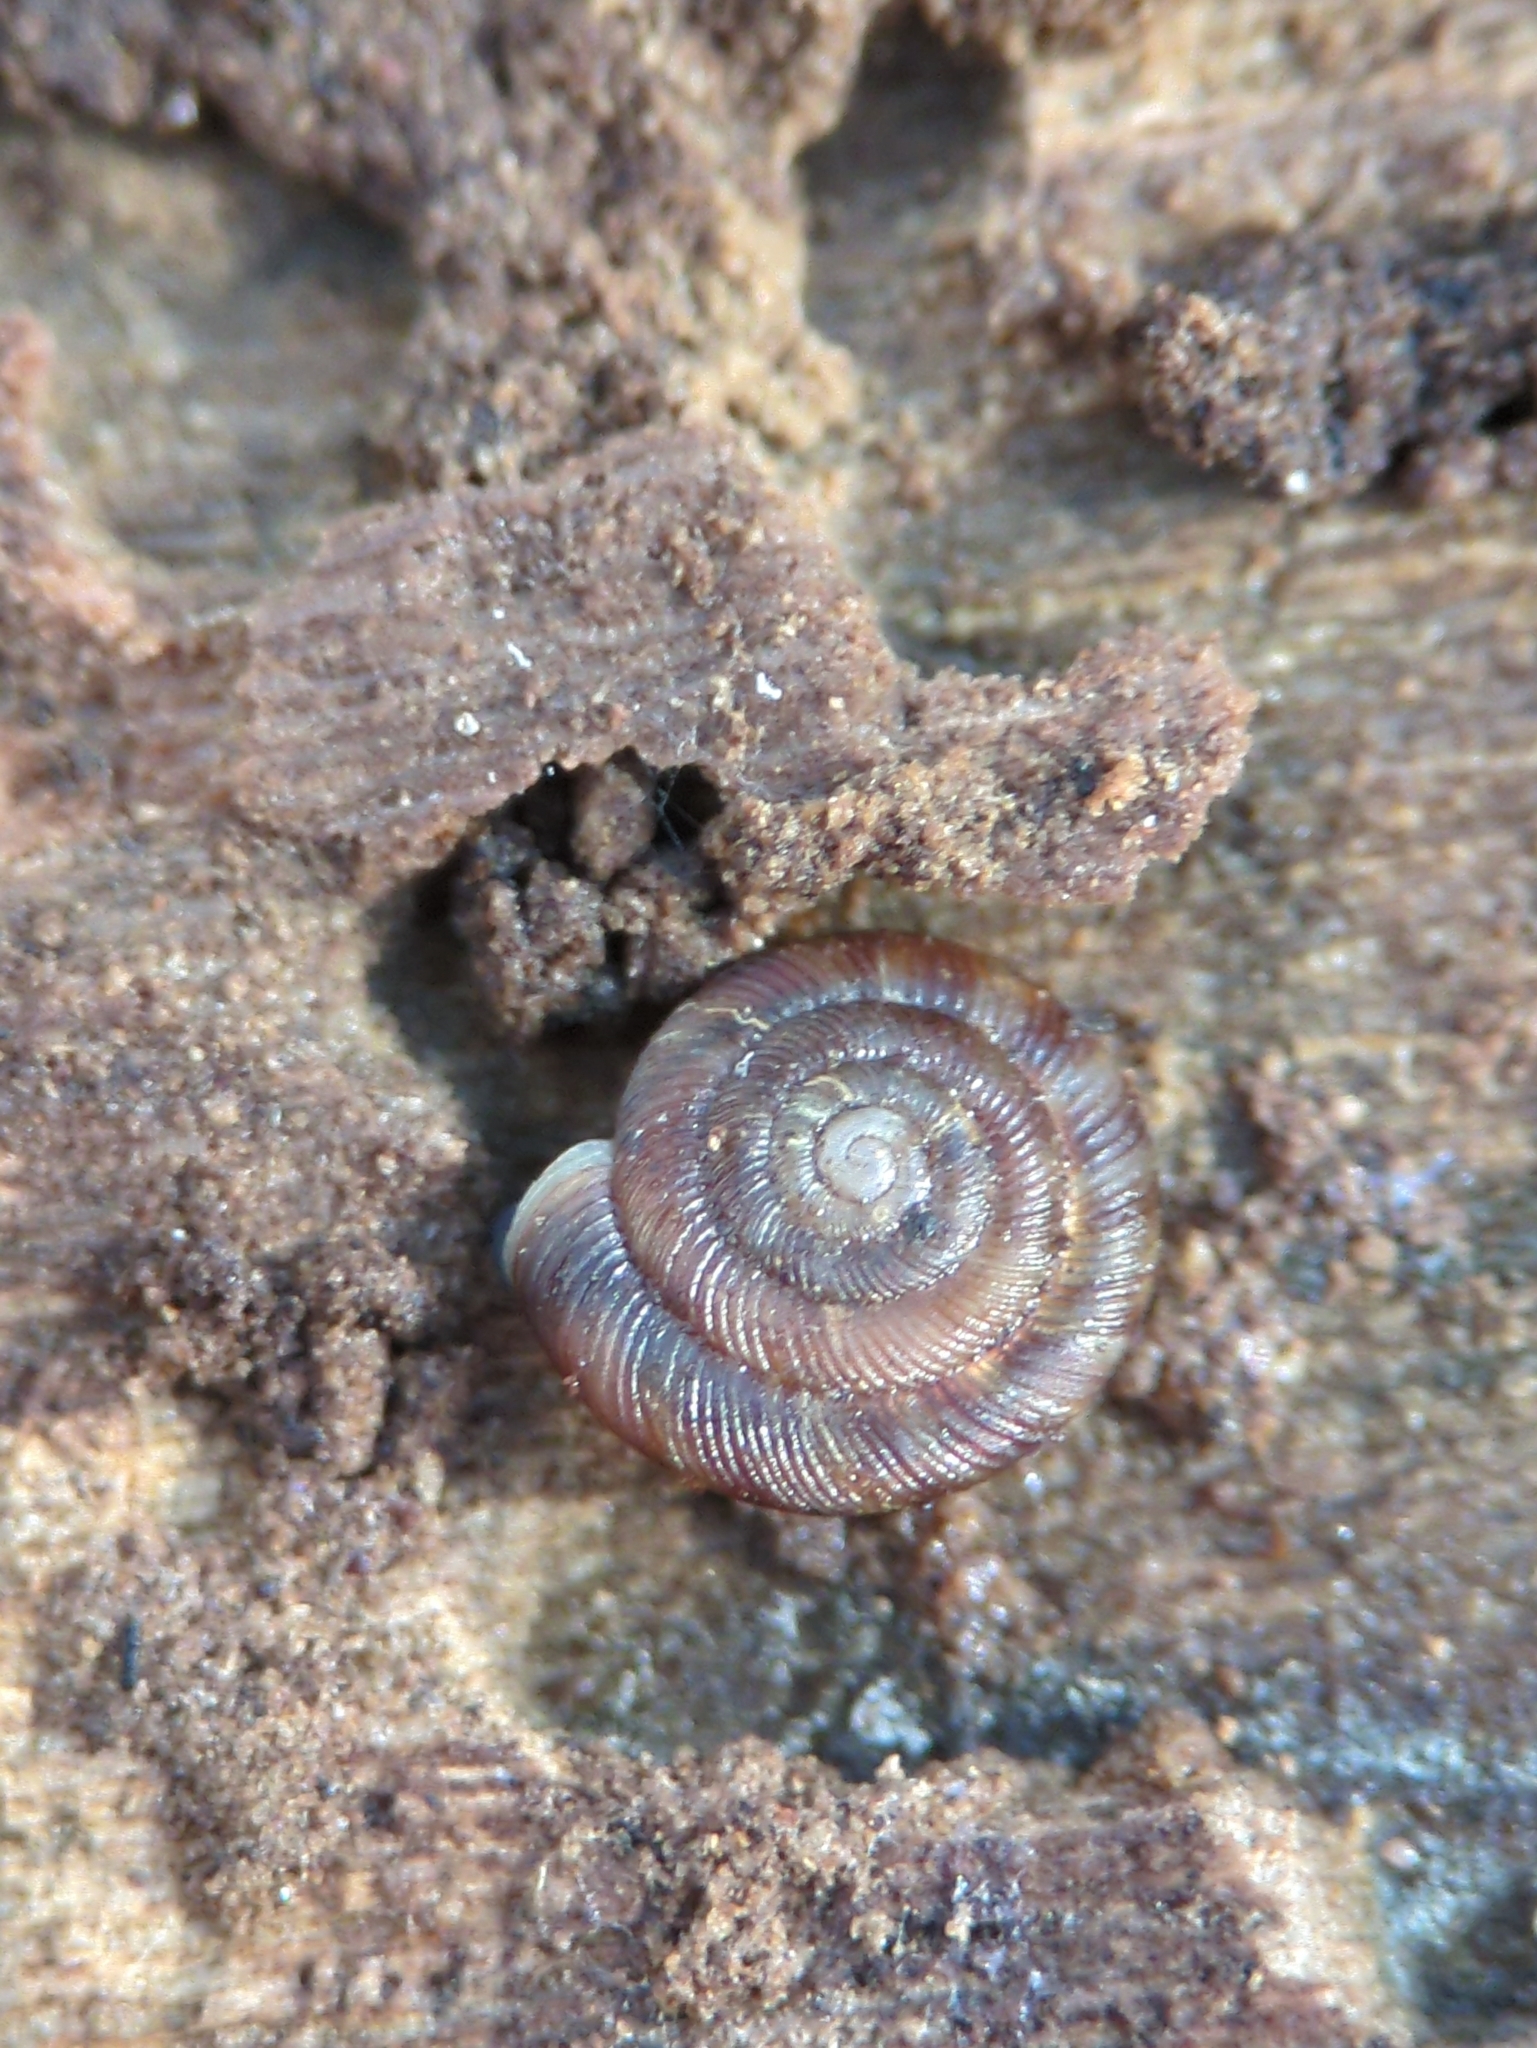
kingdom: Animalia
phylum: Mollusca
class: Gastropoda
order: Stylommatophora
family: Discidae
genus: Discus
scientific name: Discus rotundatus
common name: Rounded snail
